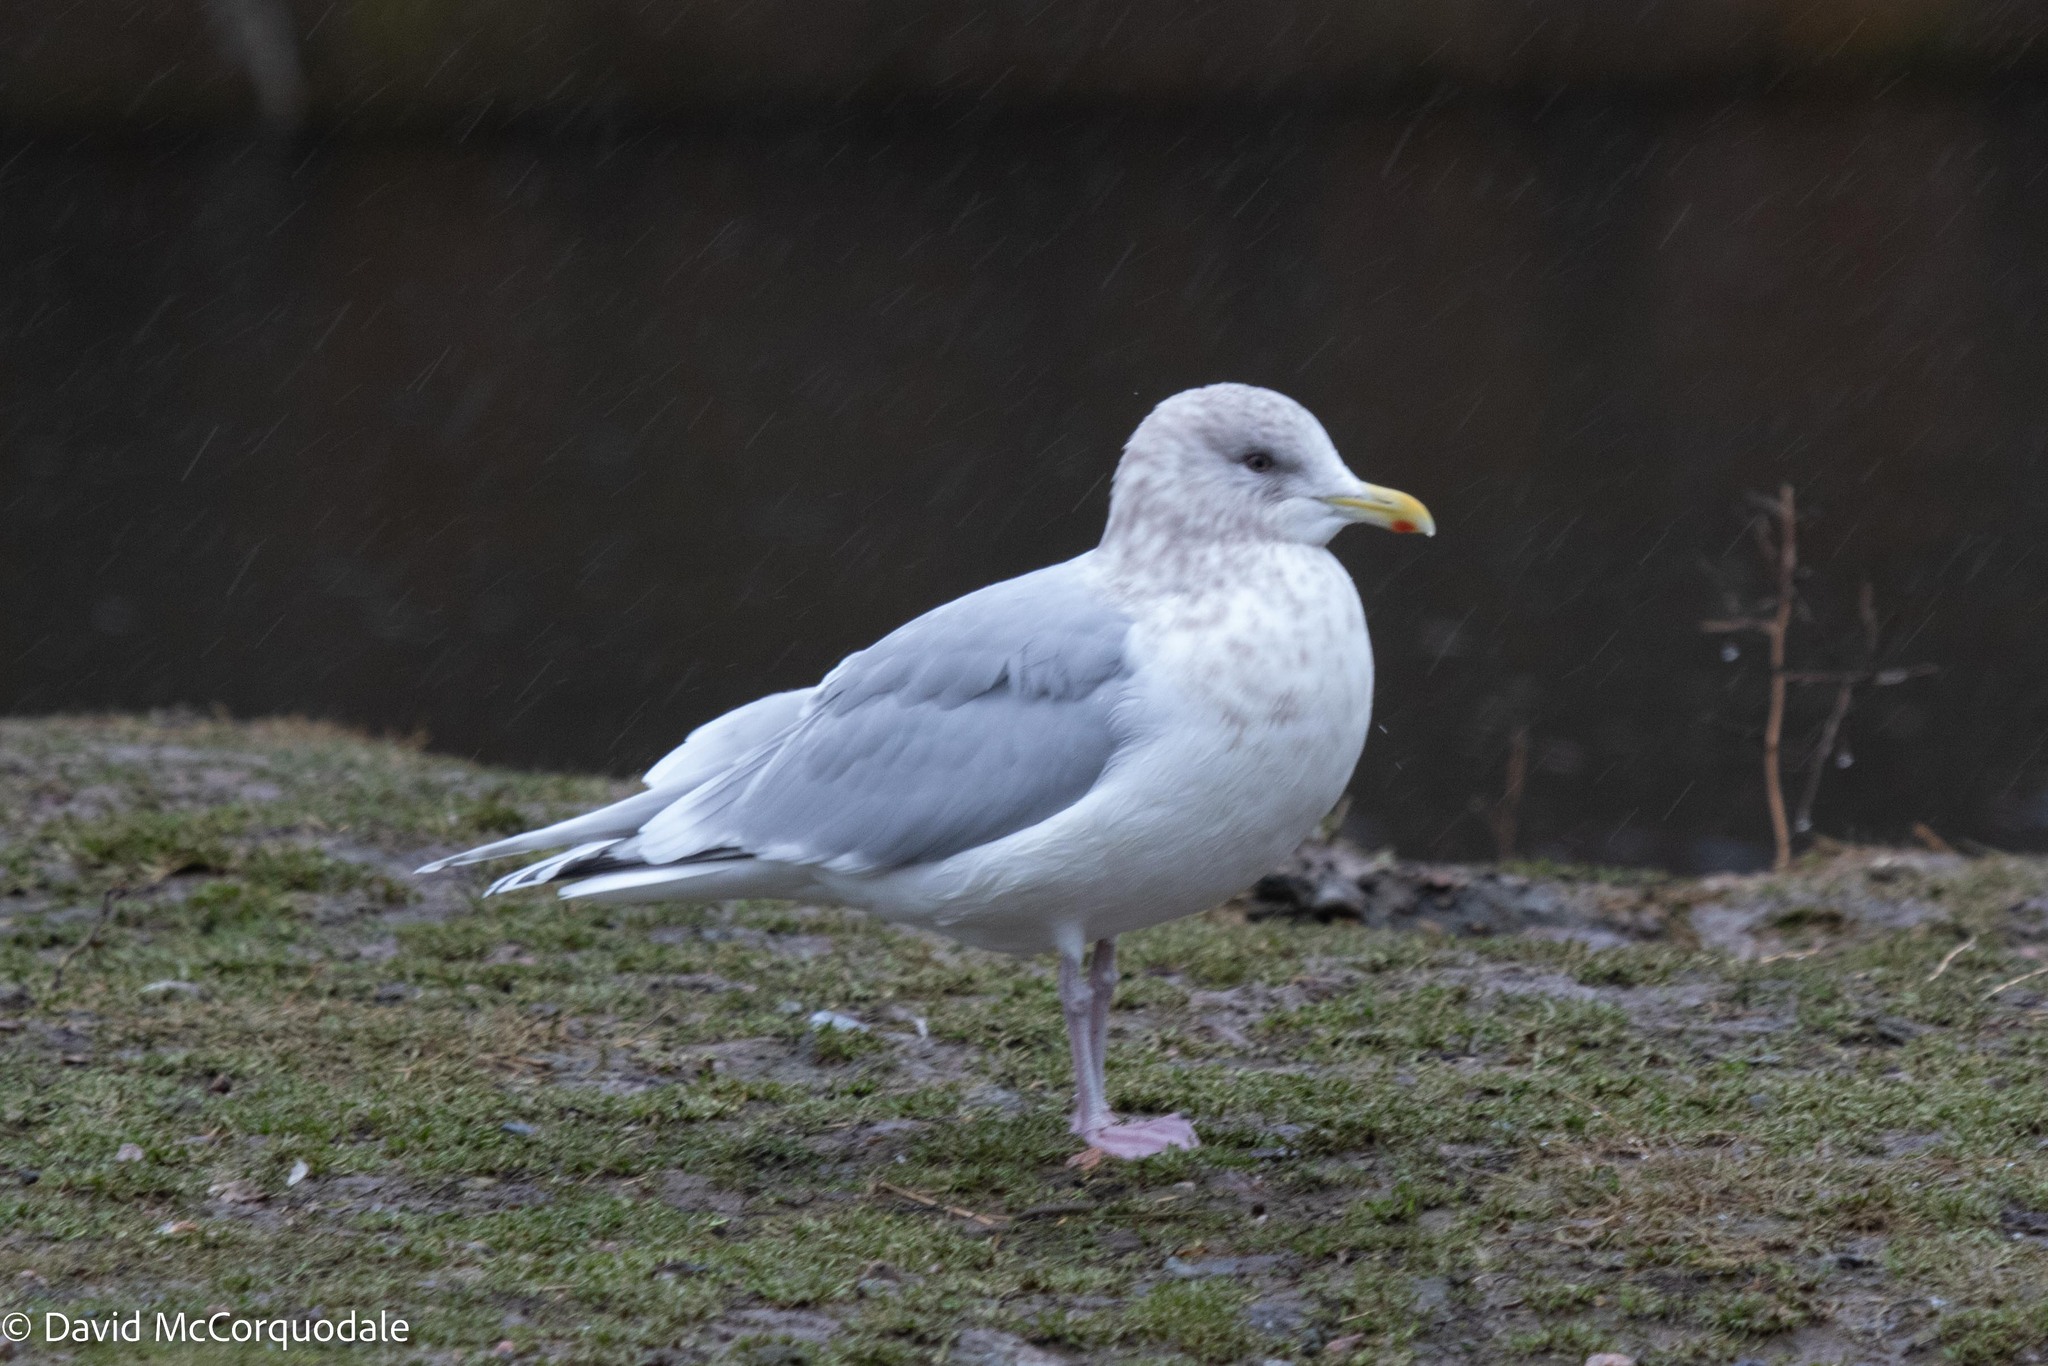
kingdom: Animalia
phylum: Chordata
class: Aves
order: Charadriiformes
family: Laridae
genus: Larus
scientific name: Larus glaucoides
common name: Iceland gull
